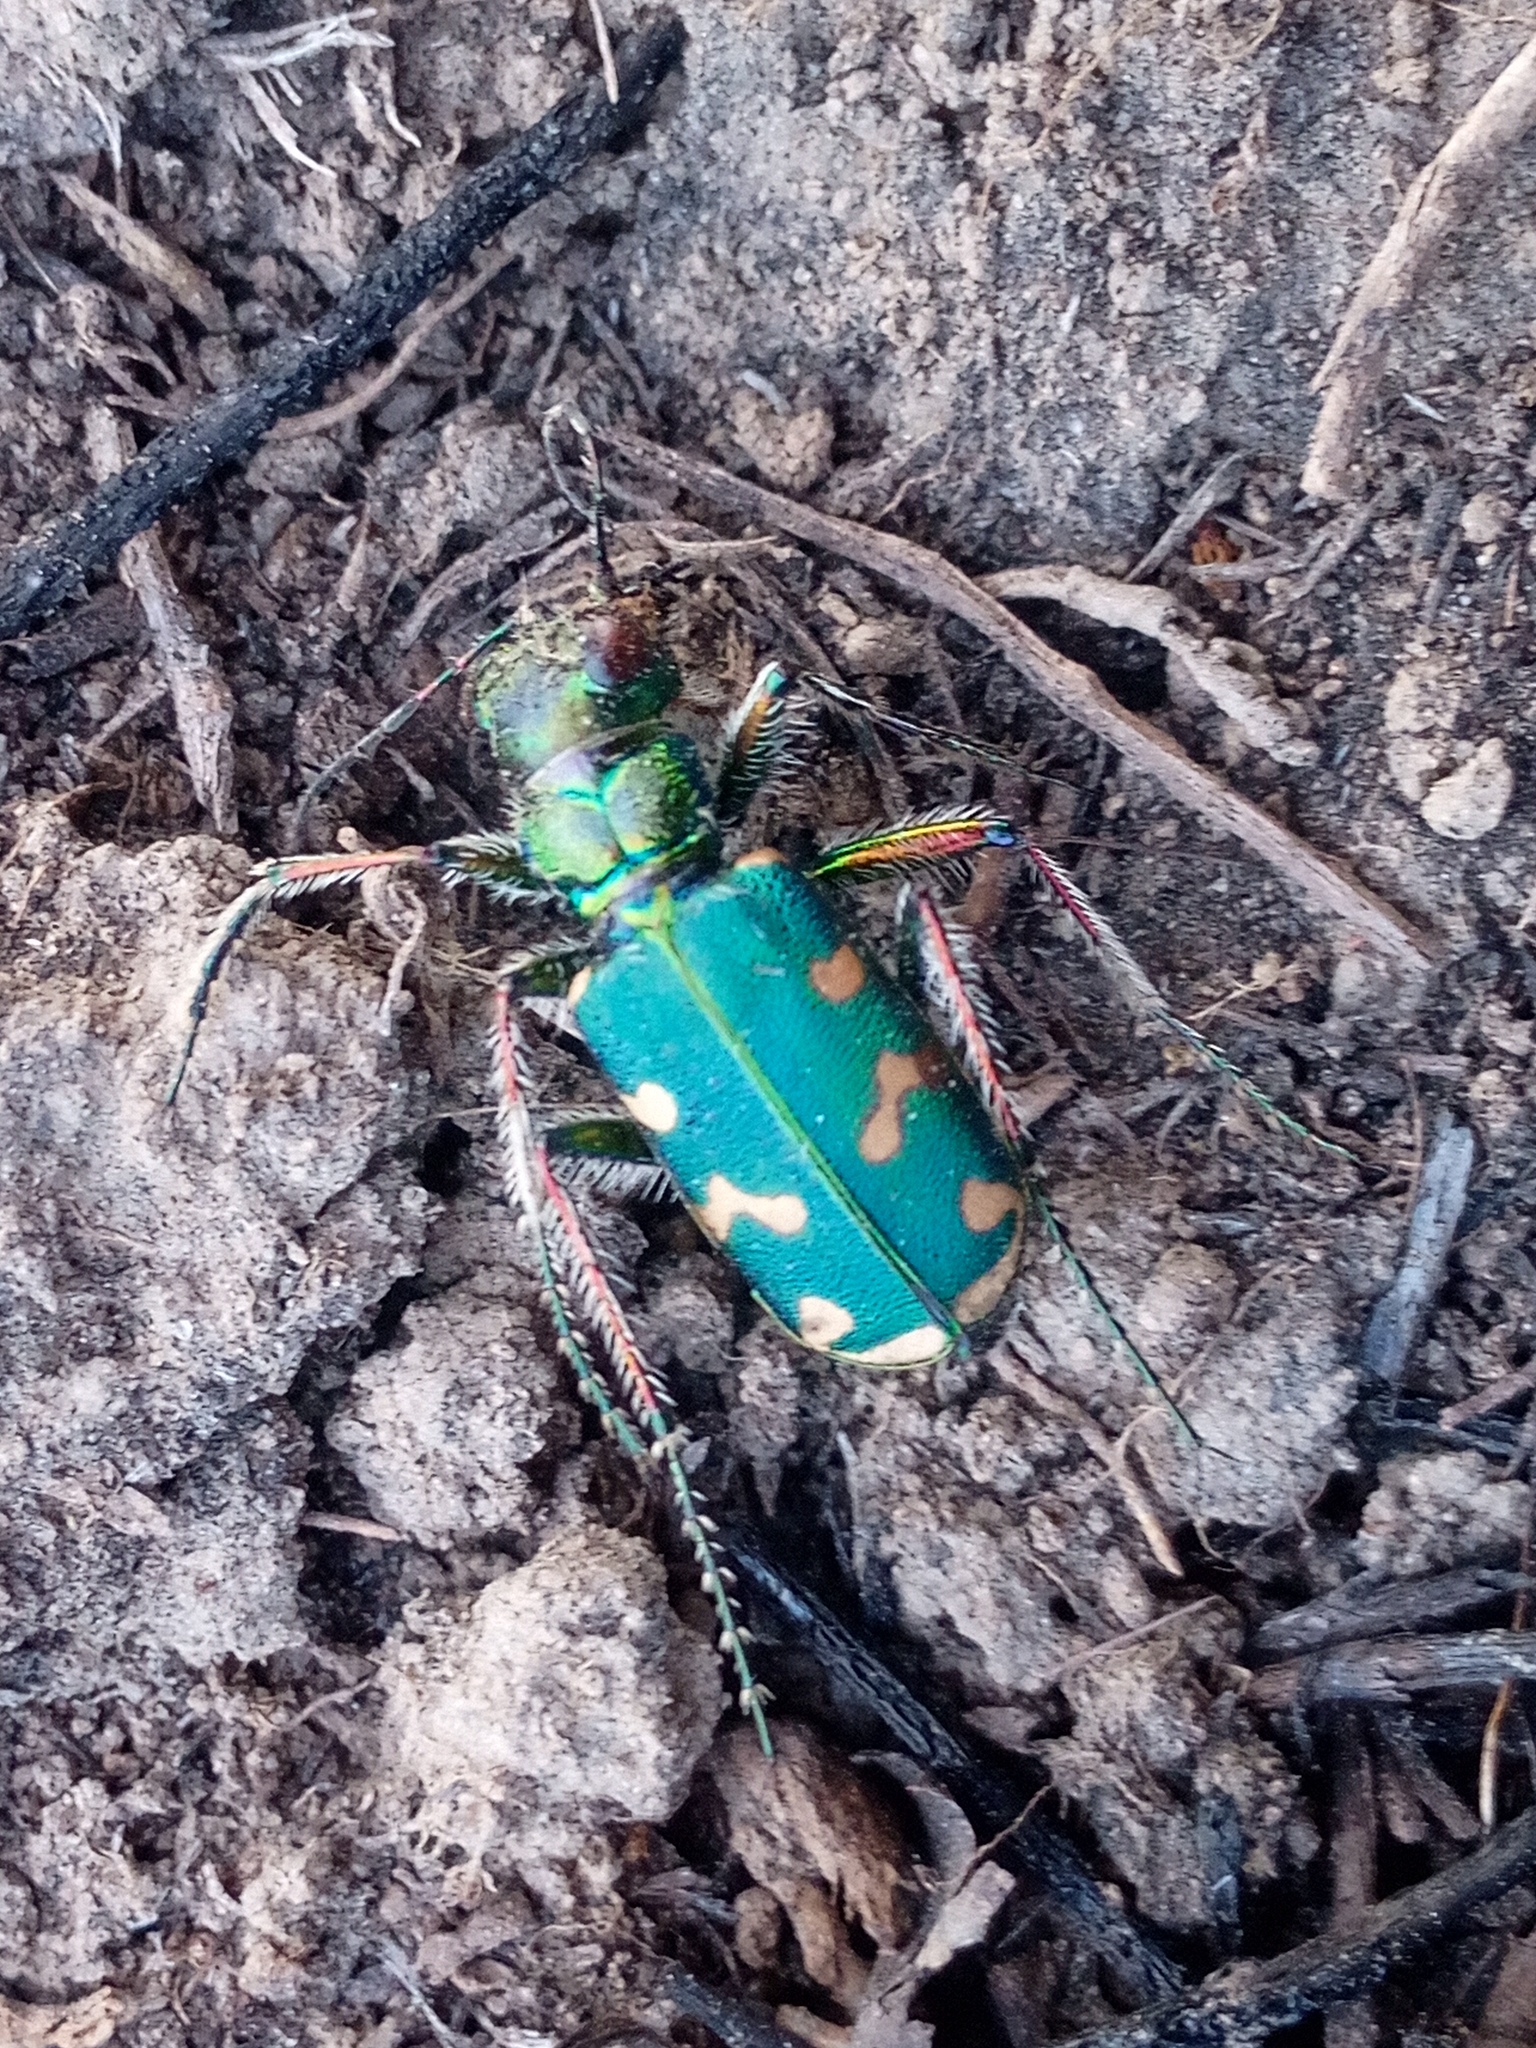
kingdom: Animalia
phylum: Arthropoda
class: Insecta
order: Coleoptera
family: Carabidae
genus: Cicindela
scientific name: Cicindela soluta
